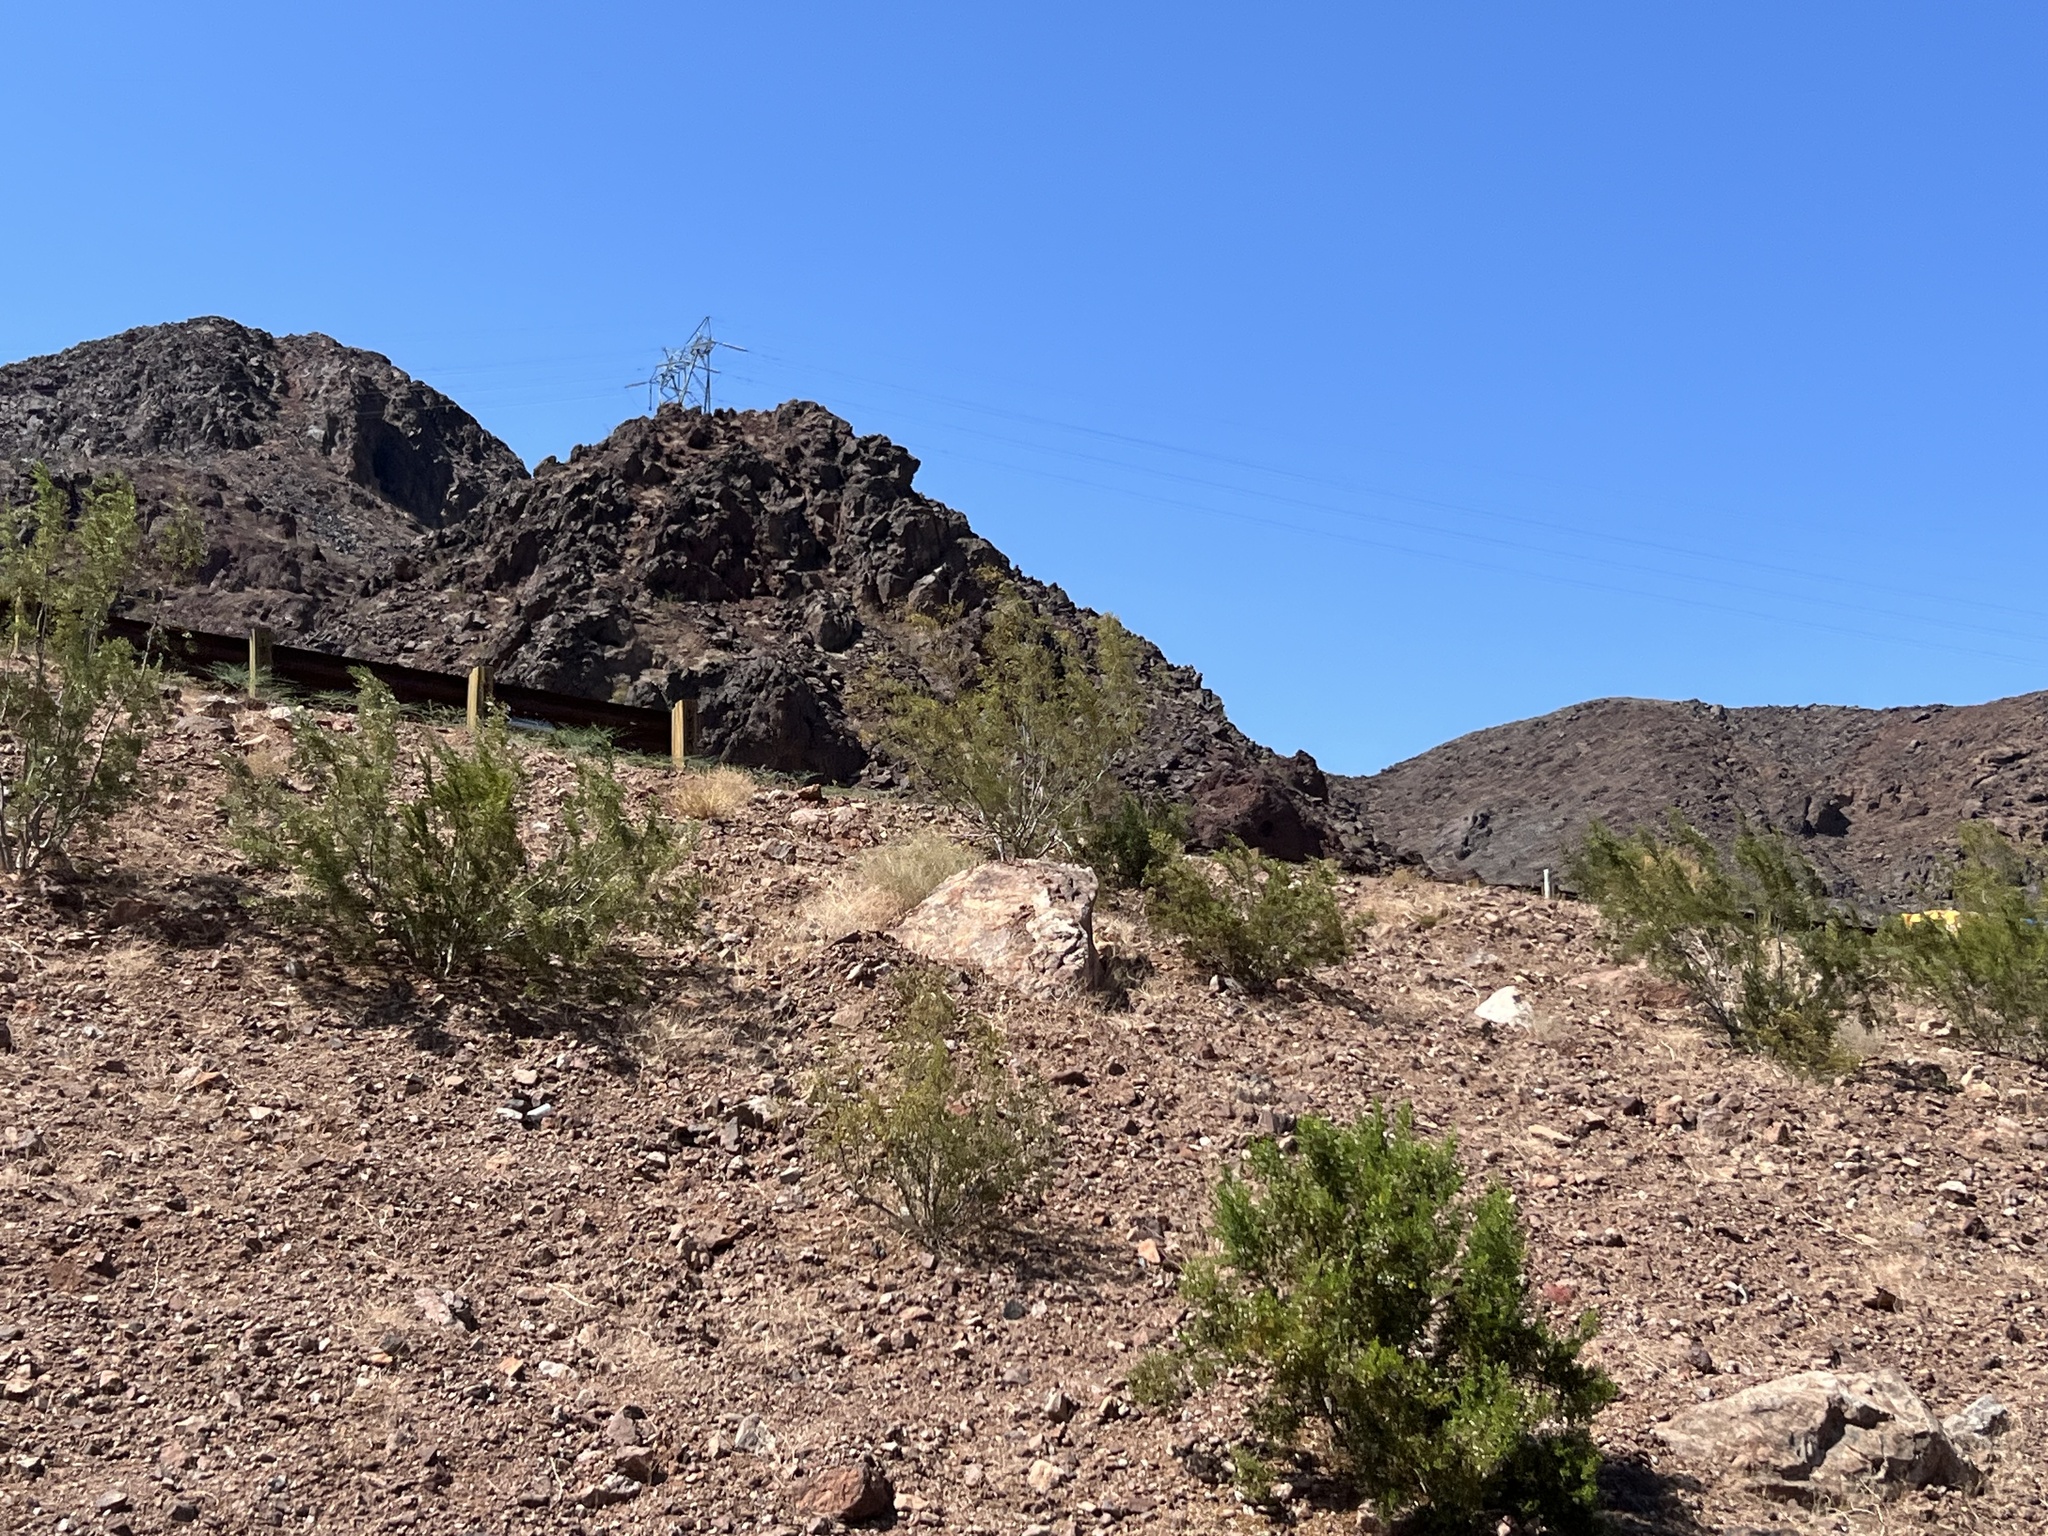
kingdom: Plantae
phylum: Tracheophyta
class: Magnoliopsida
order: Zygophyllales
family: Zygophyllaceae
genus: Larrea
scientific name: Larrea tridentata
